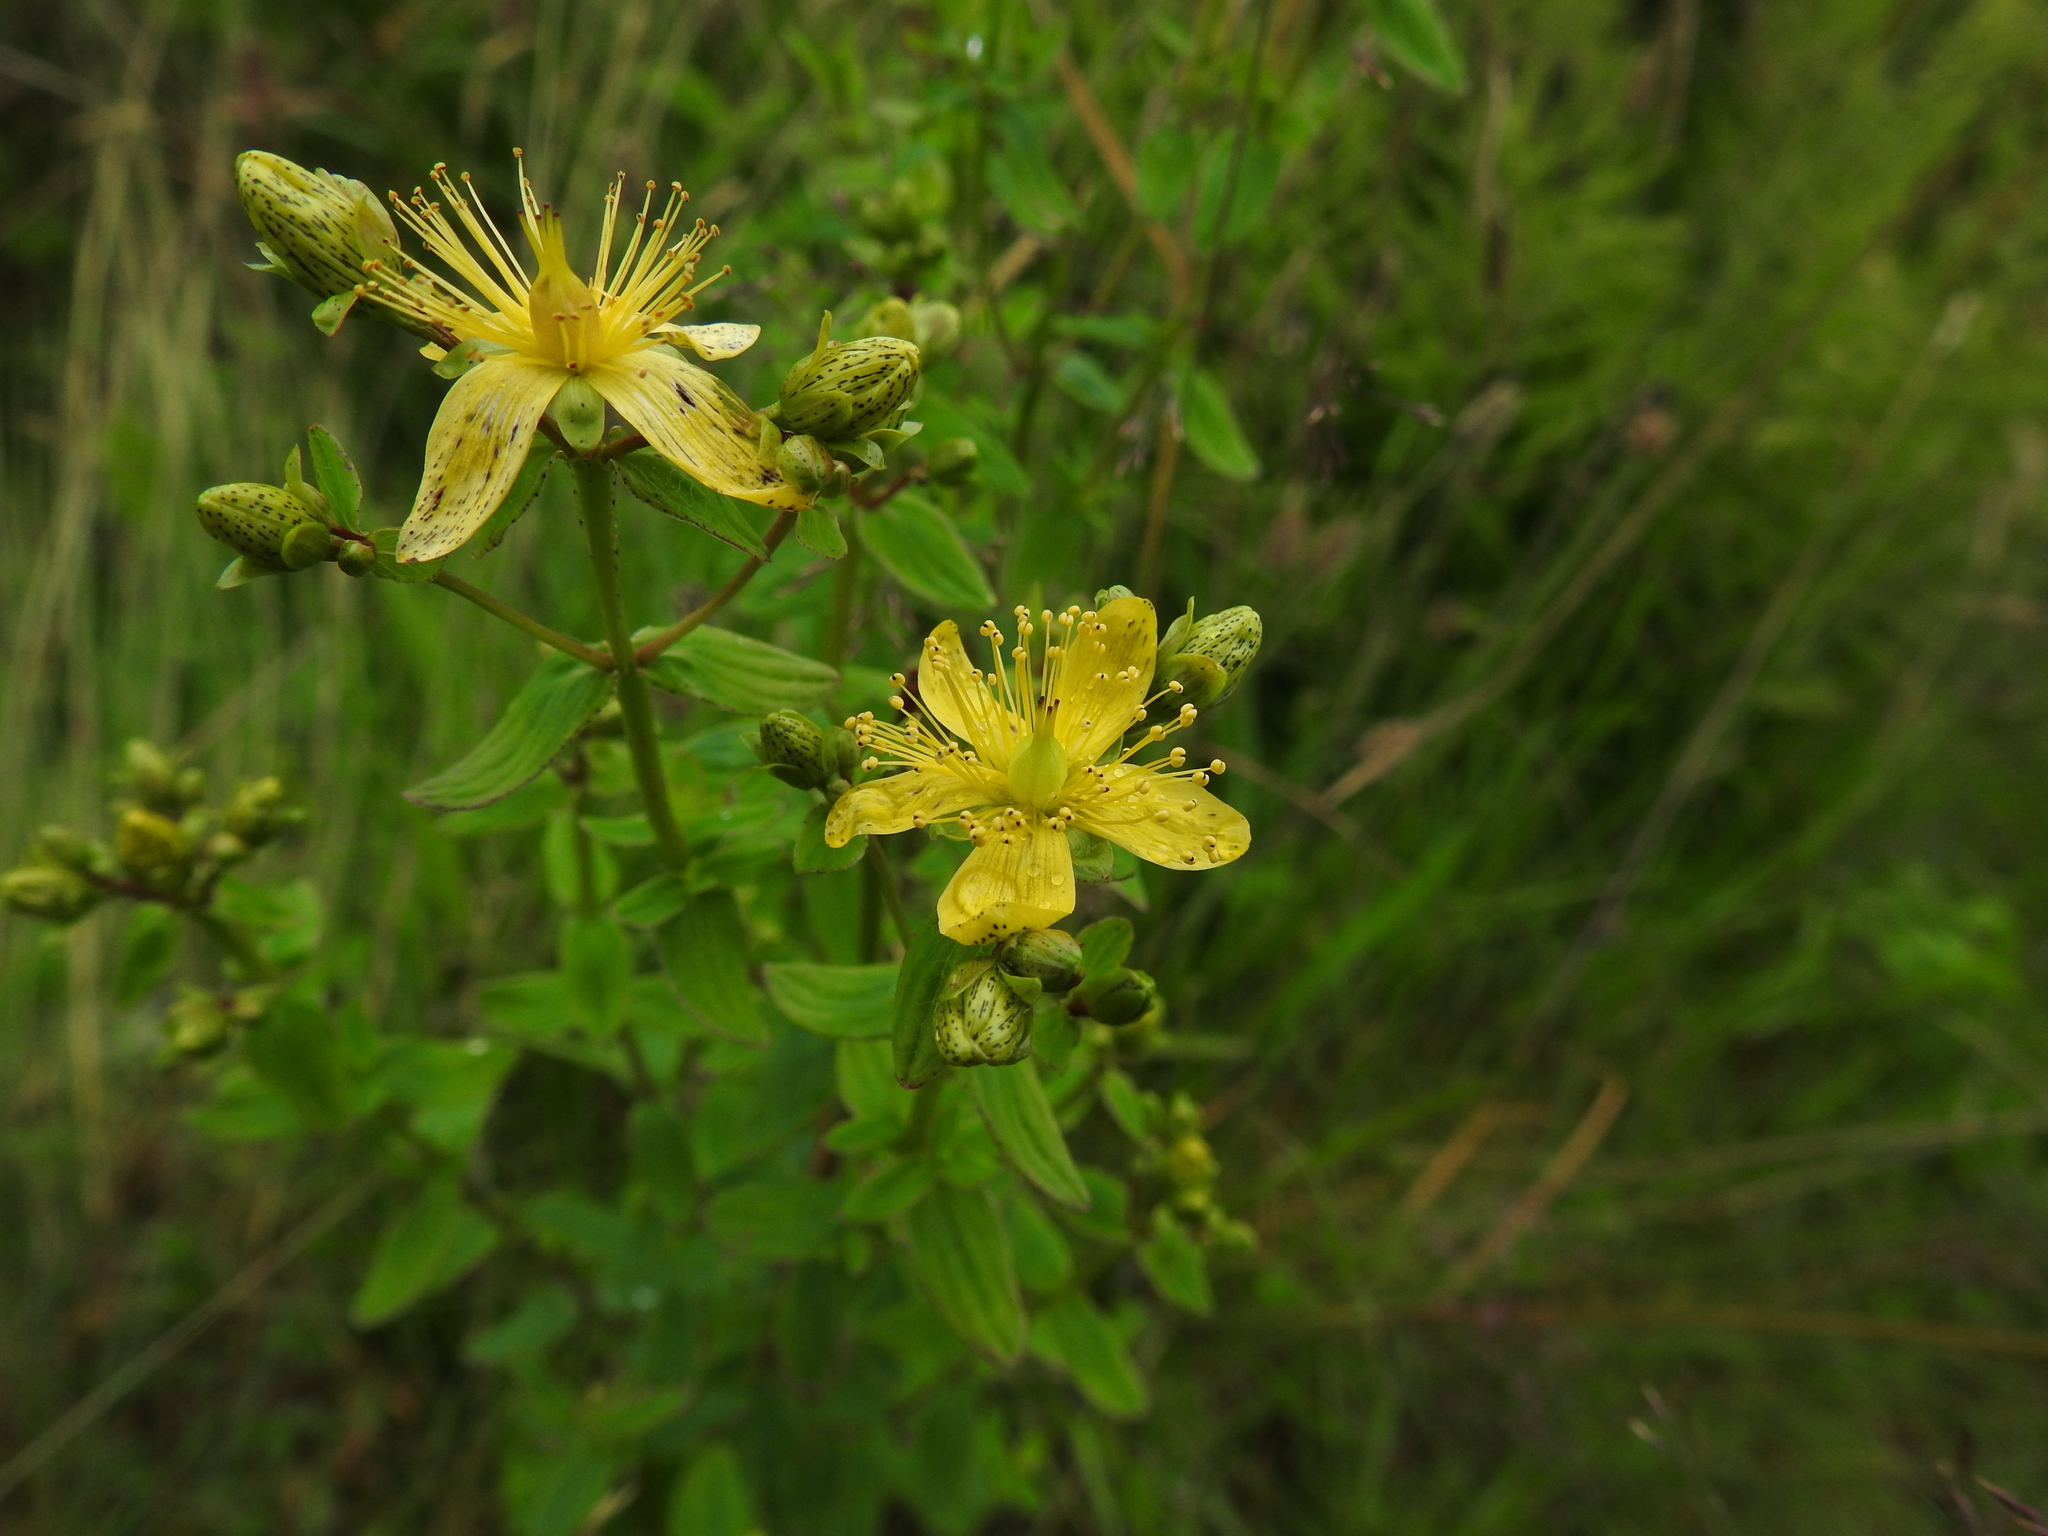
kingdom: Plantae
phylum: Tracheophyta
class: Magnoliopsida
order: Malpighiales
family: Hypericaceae
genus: Hypericum
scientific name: Hypericum maculatum
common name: Imperforate st. john's-wort
